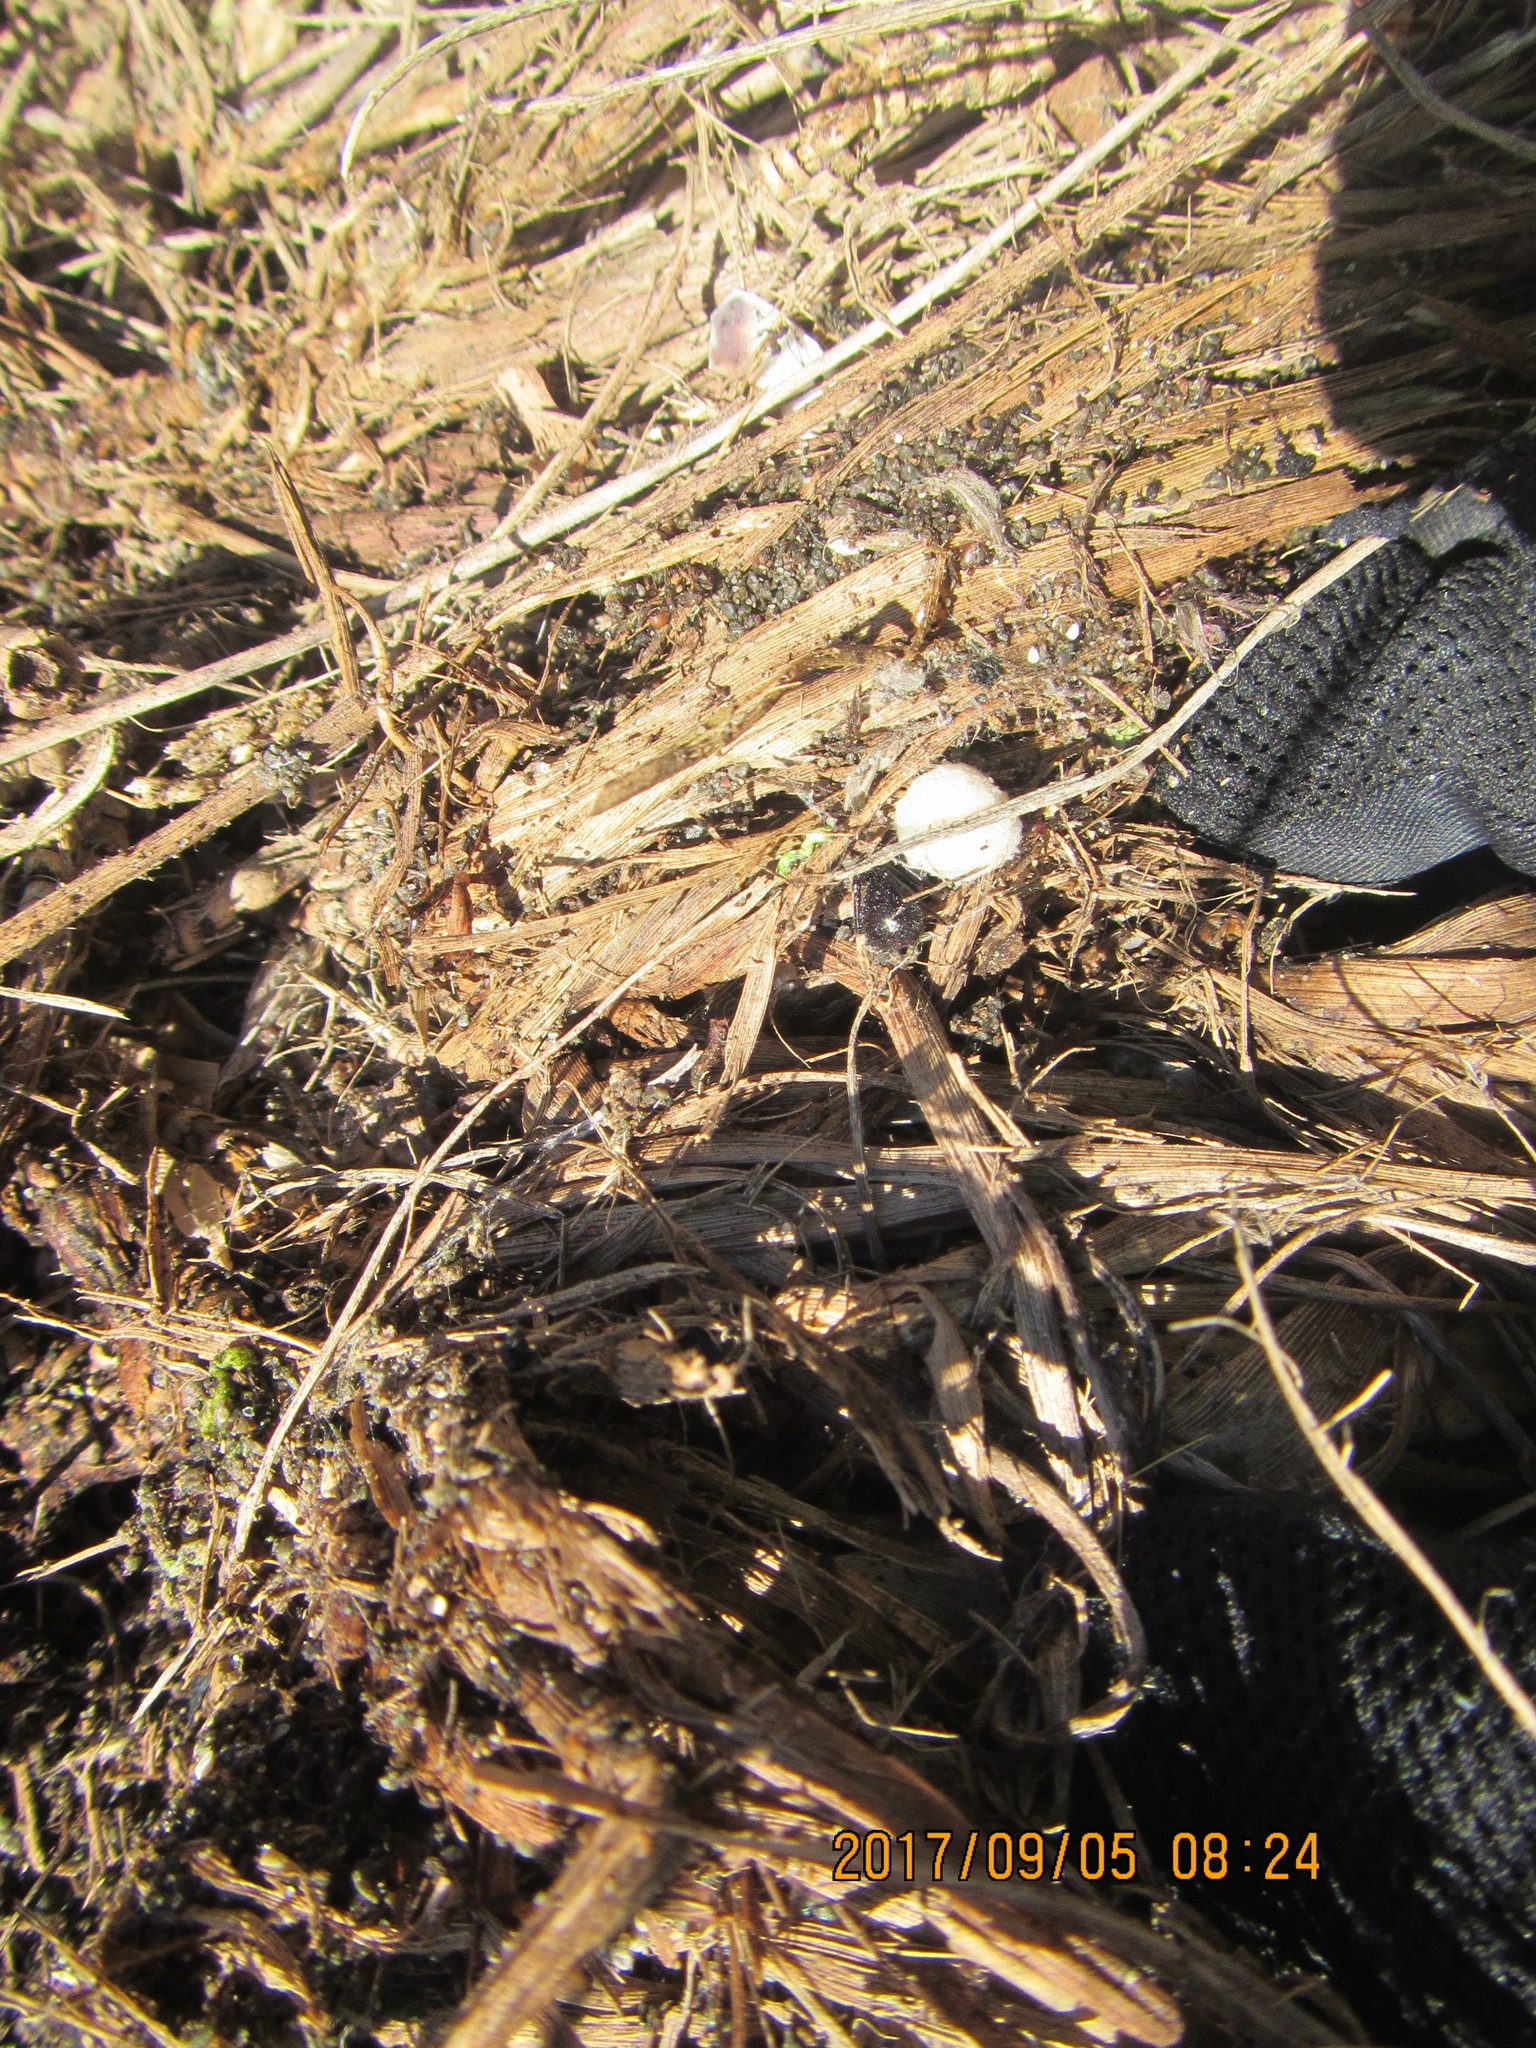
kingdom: Animalia
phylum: Arthropoda
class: Arachnida
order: Araneae
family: Theridiidae
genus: Steatoda
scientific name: Steatoda capensis
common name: Cobweb weaver
